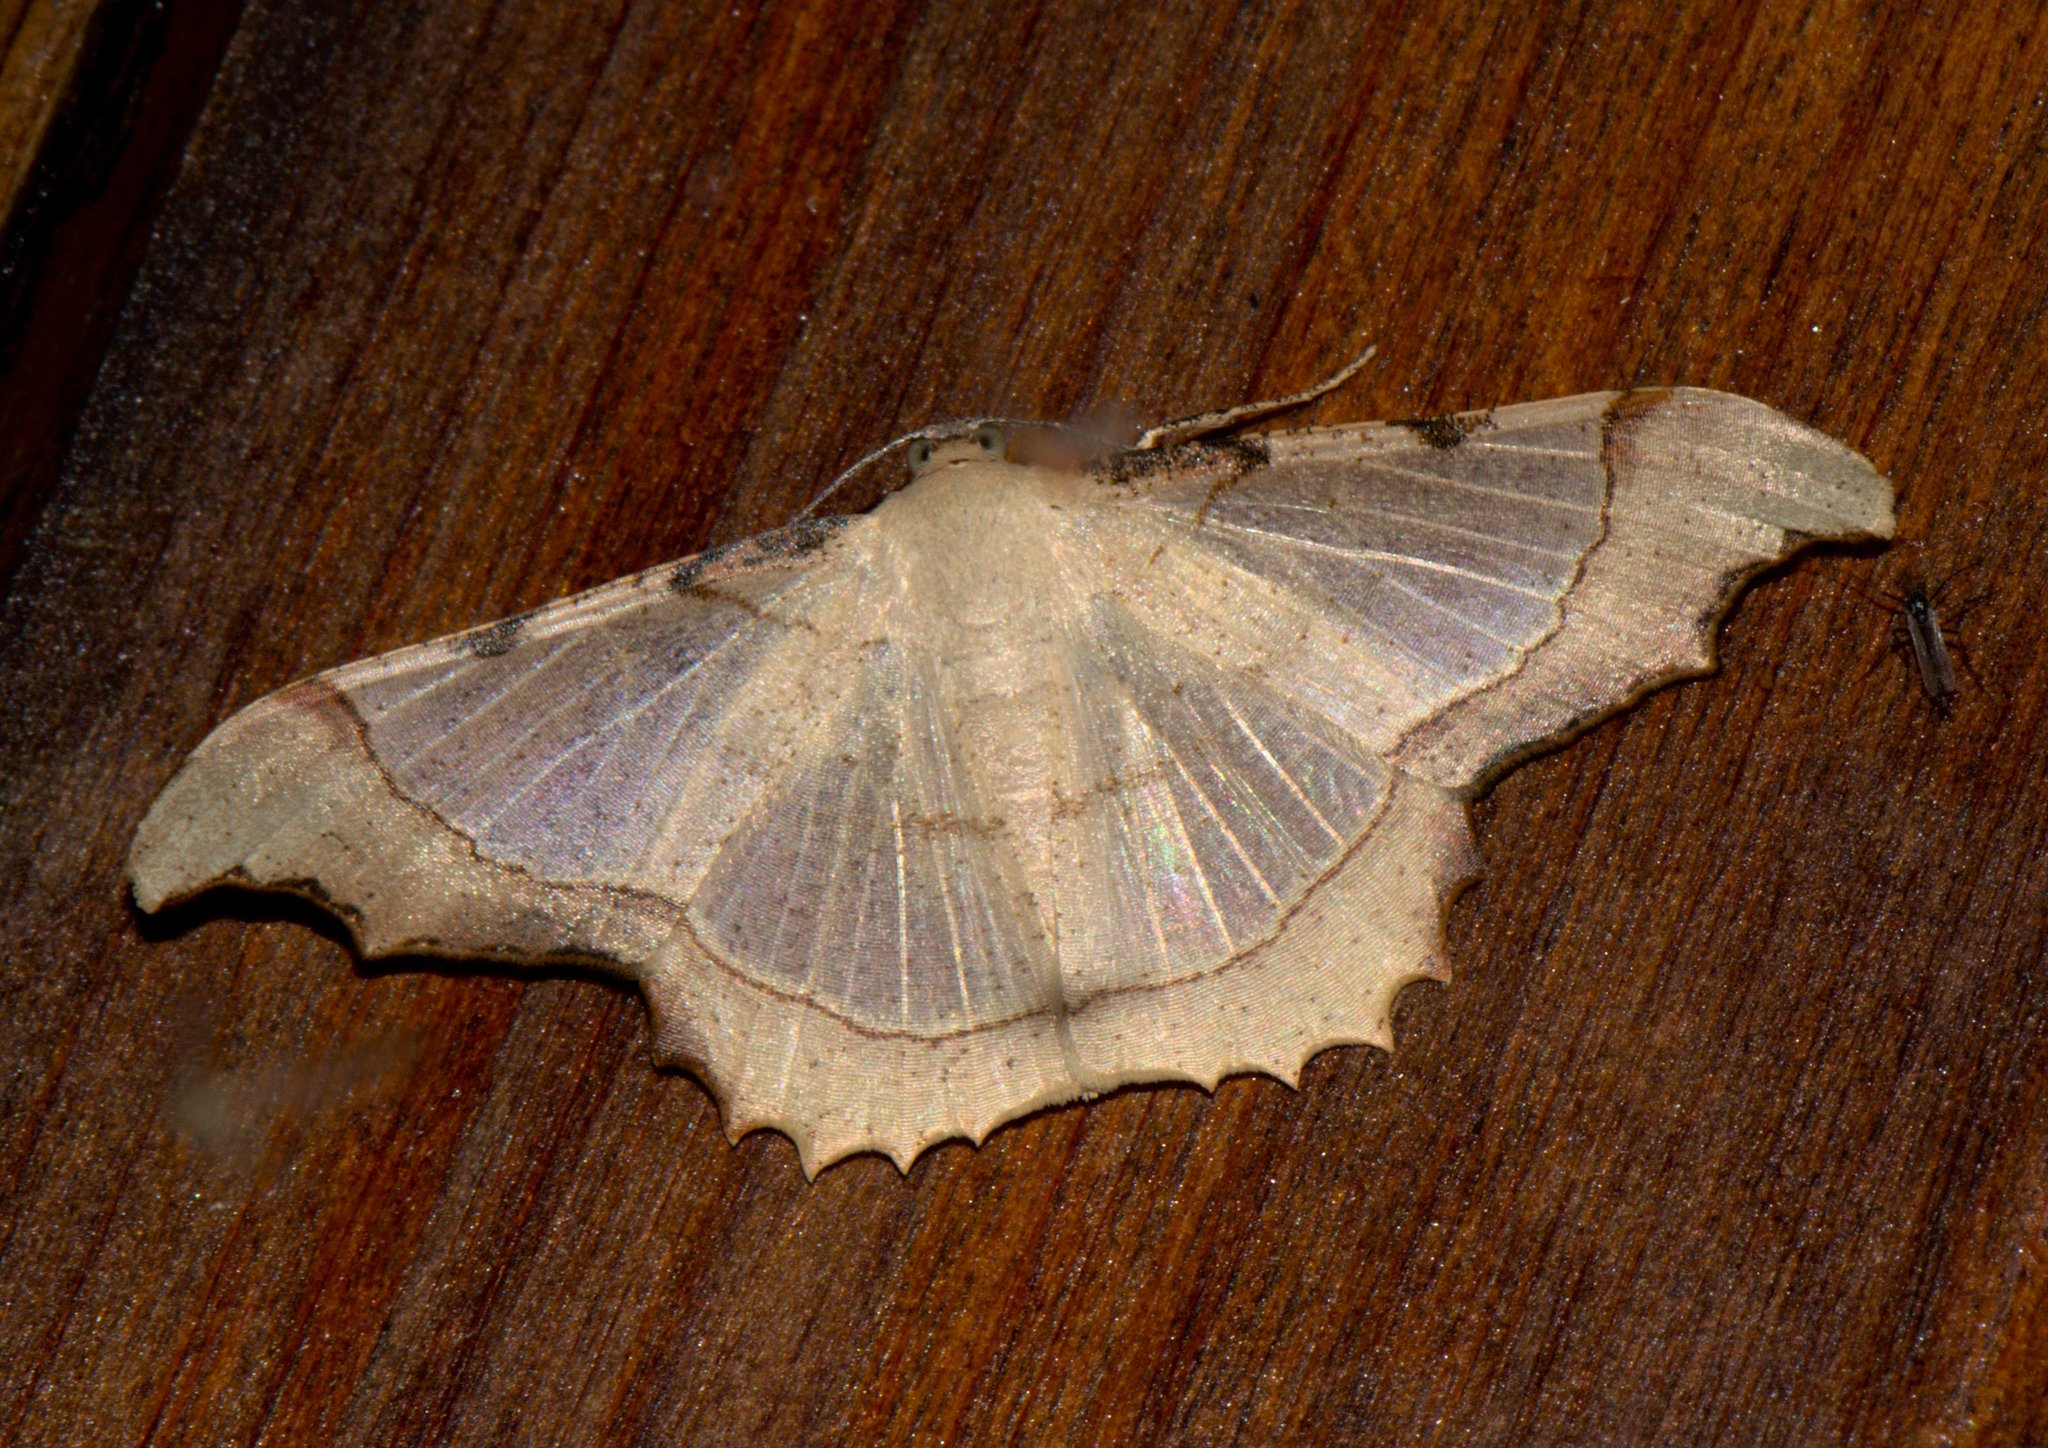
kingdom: Animalia
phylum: Arthropoda
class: Insecta
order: Lepidoptera
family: Geometridae
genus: Zeheba
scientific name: Zeheba aureata
